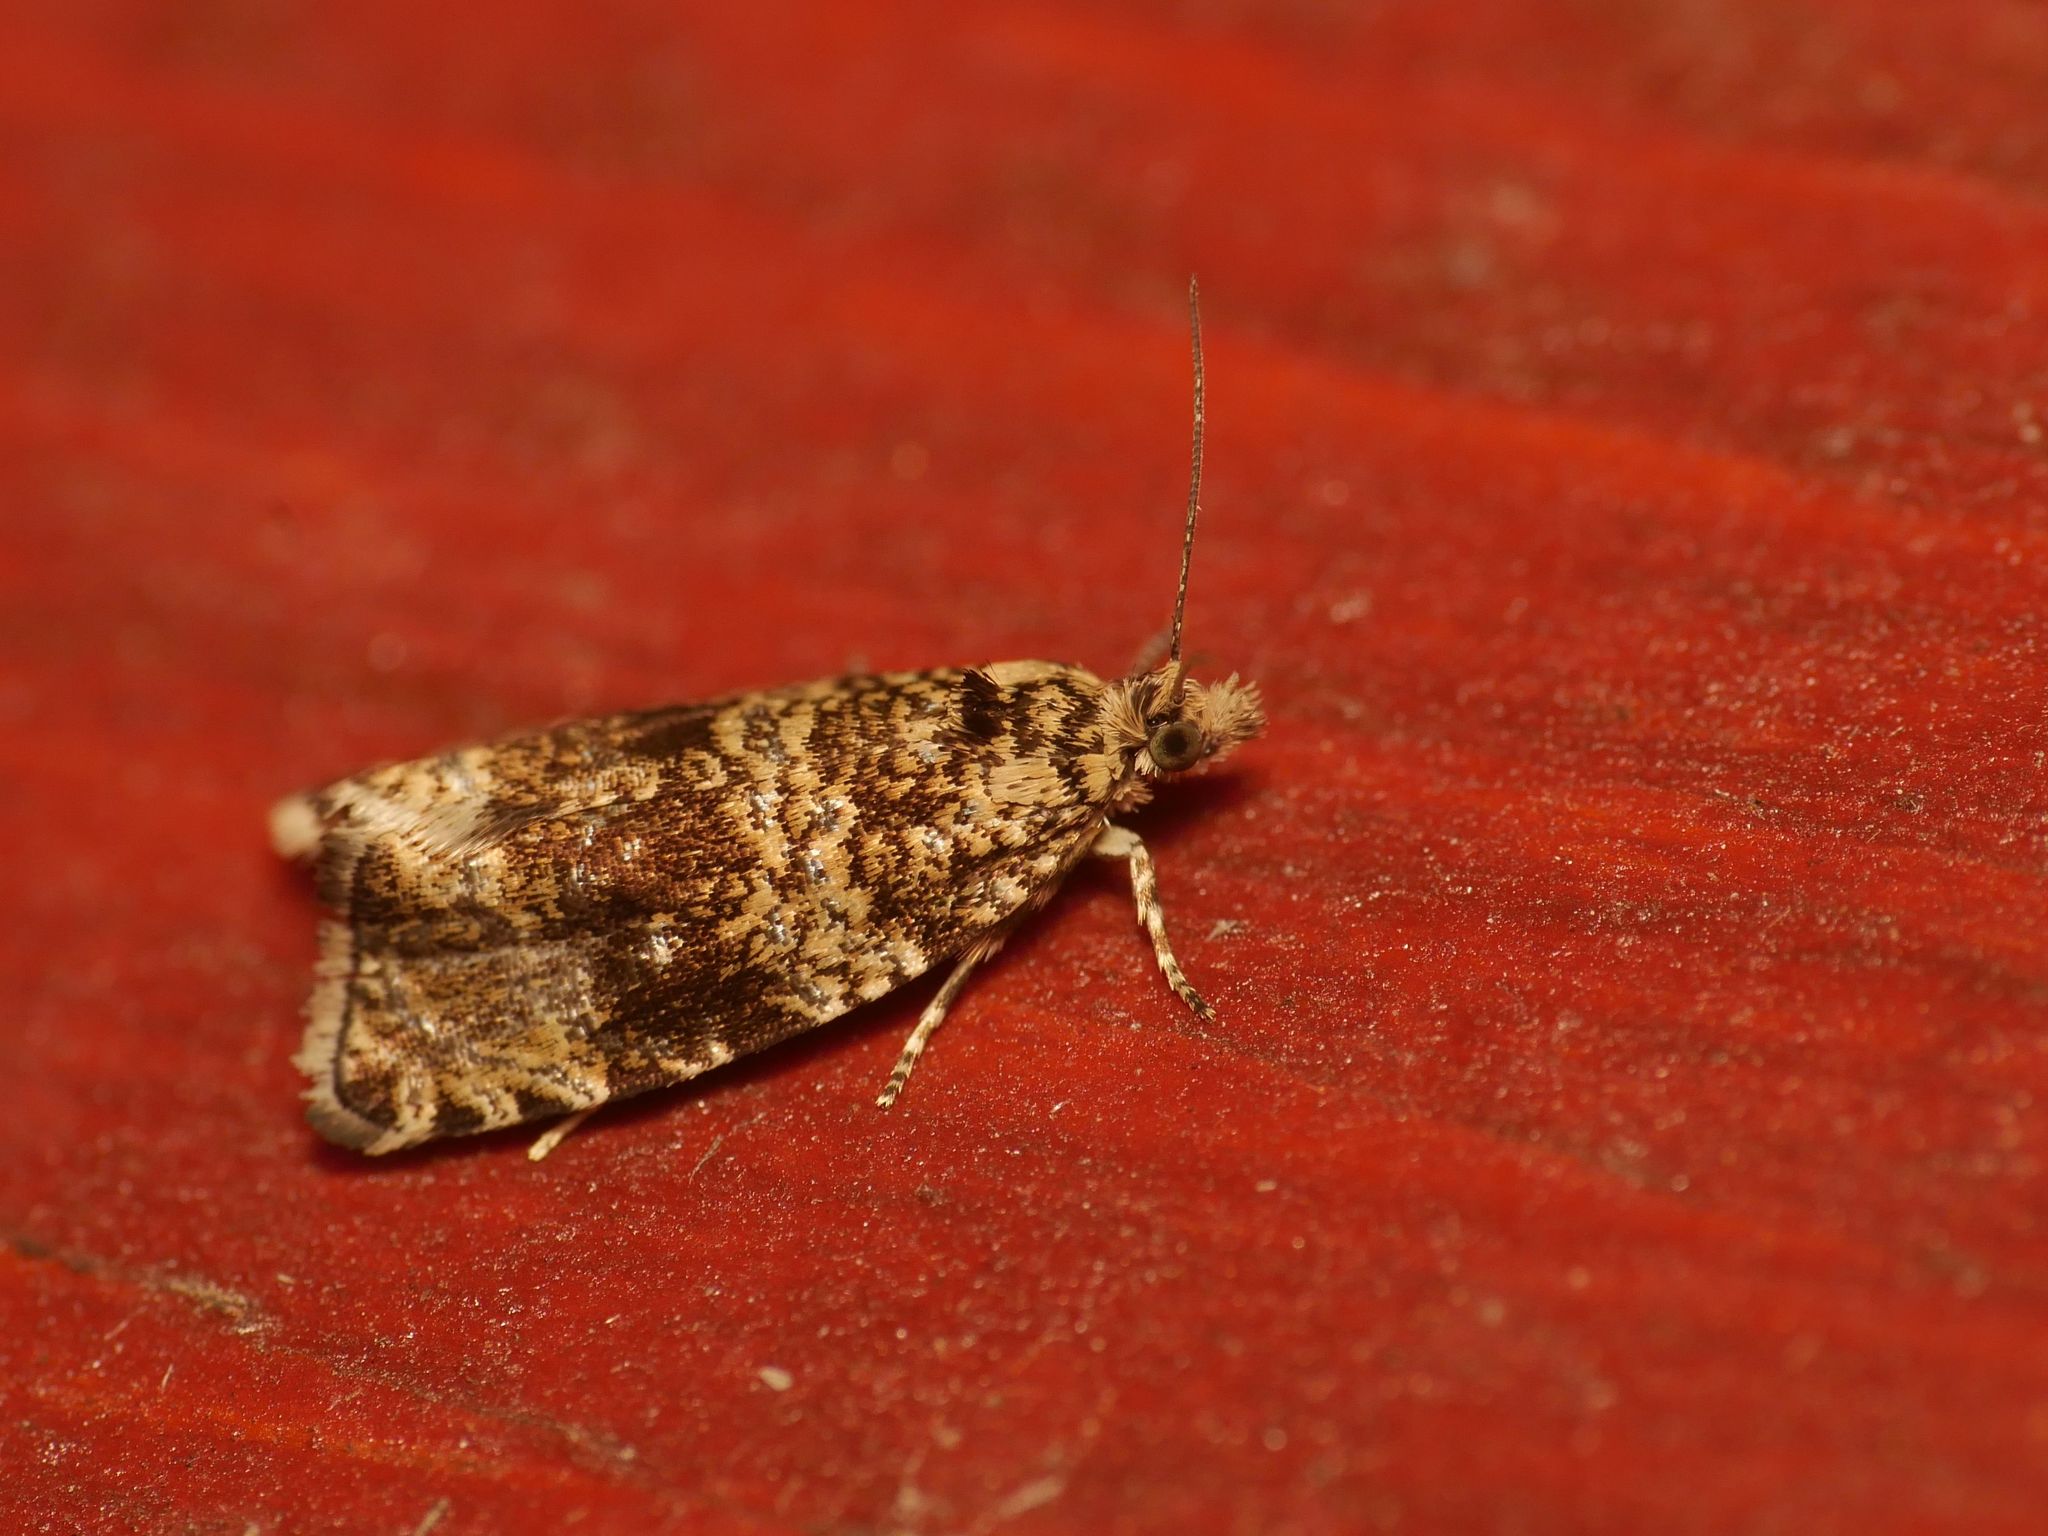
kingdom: Animalia
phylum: Arthropoda
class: Insecta
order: Lepidoptera
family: Tortricidae
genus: Syricoris
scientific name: Syricoris lacunana
